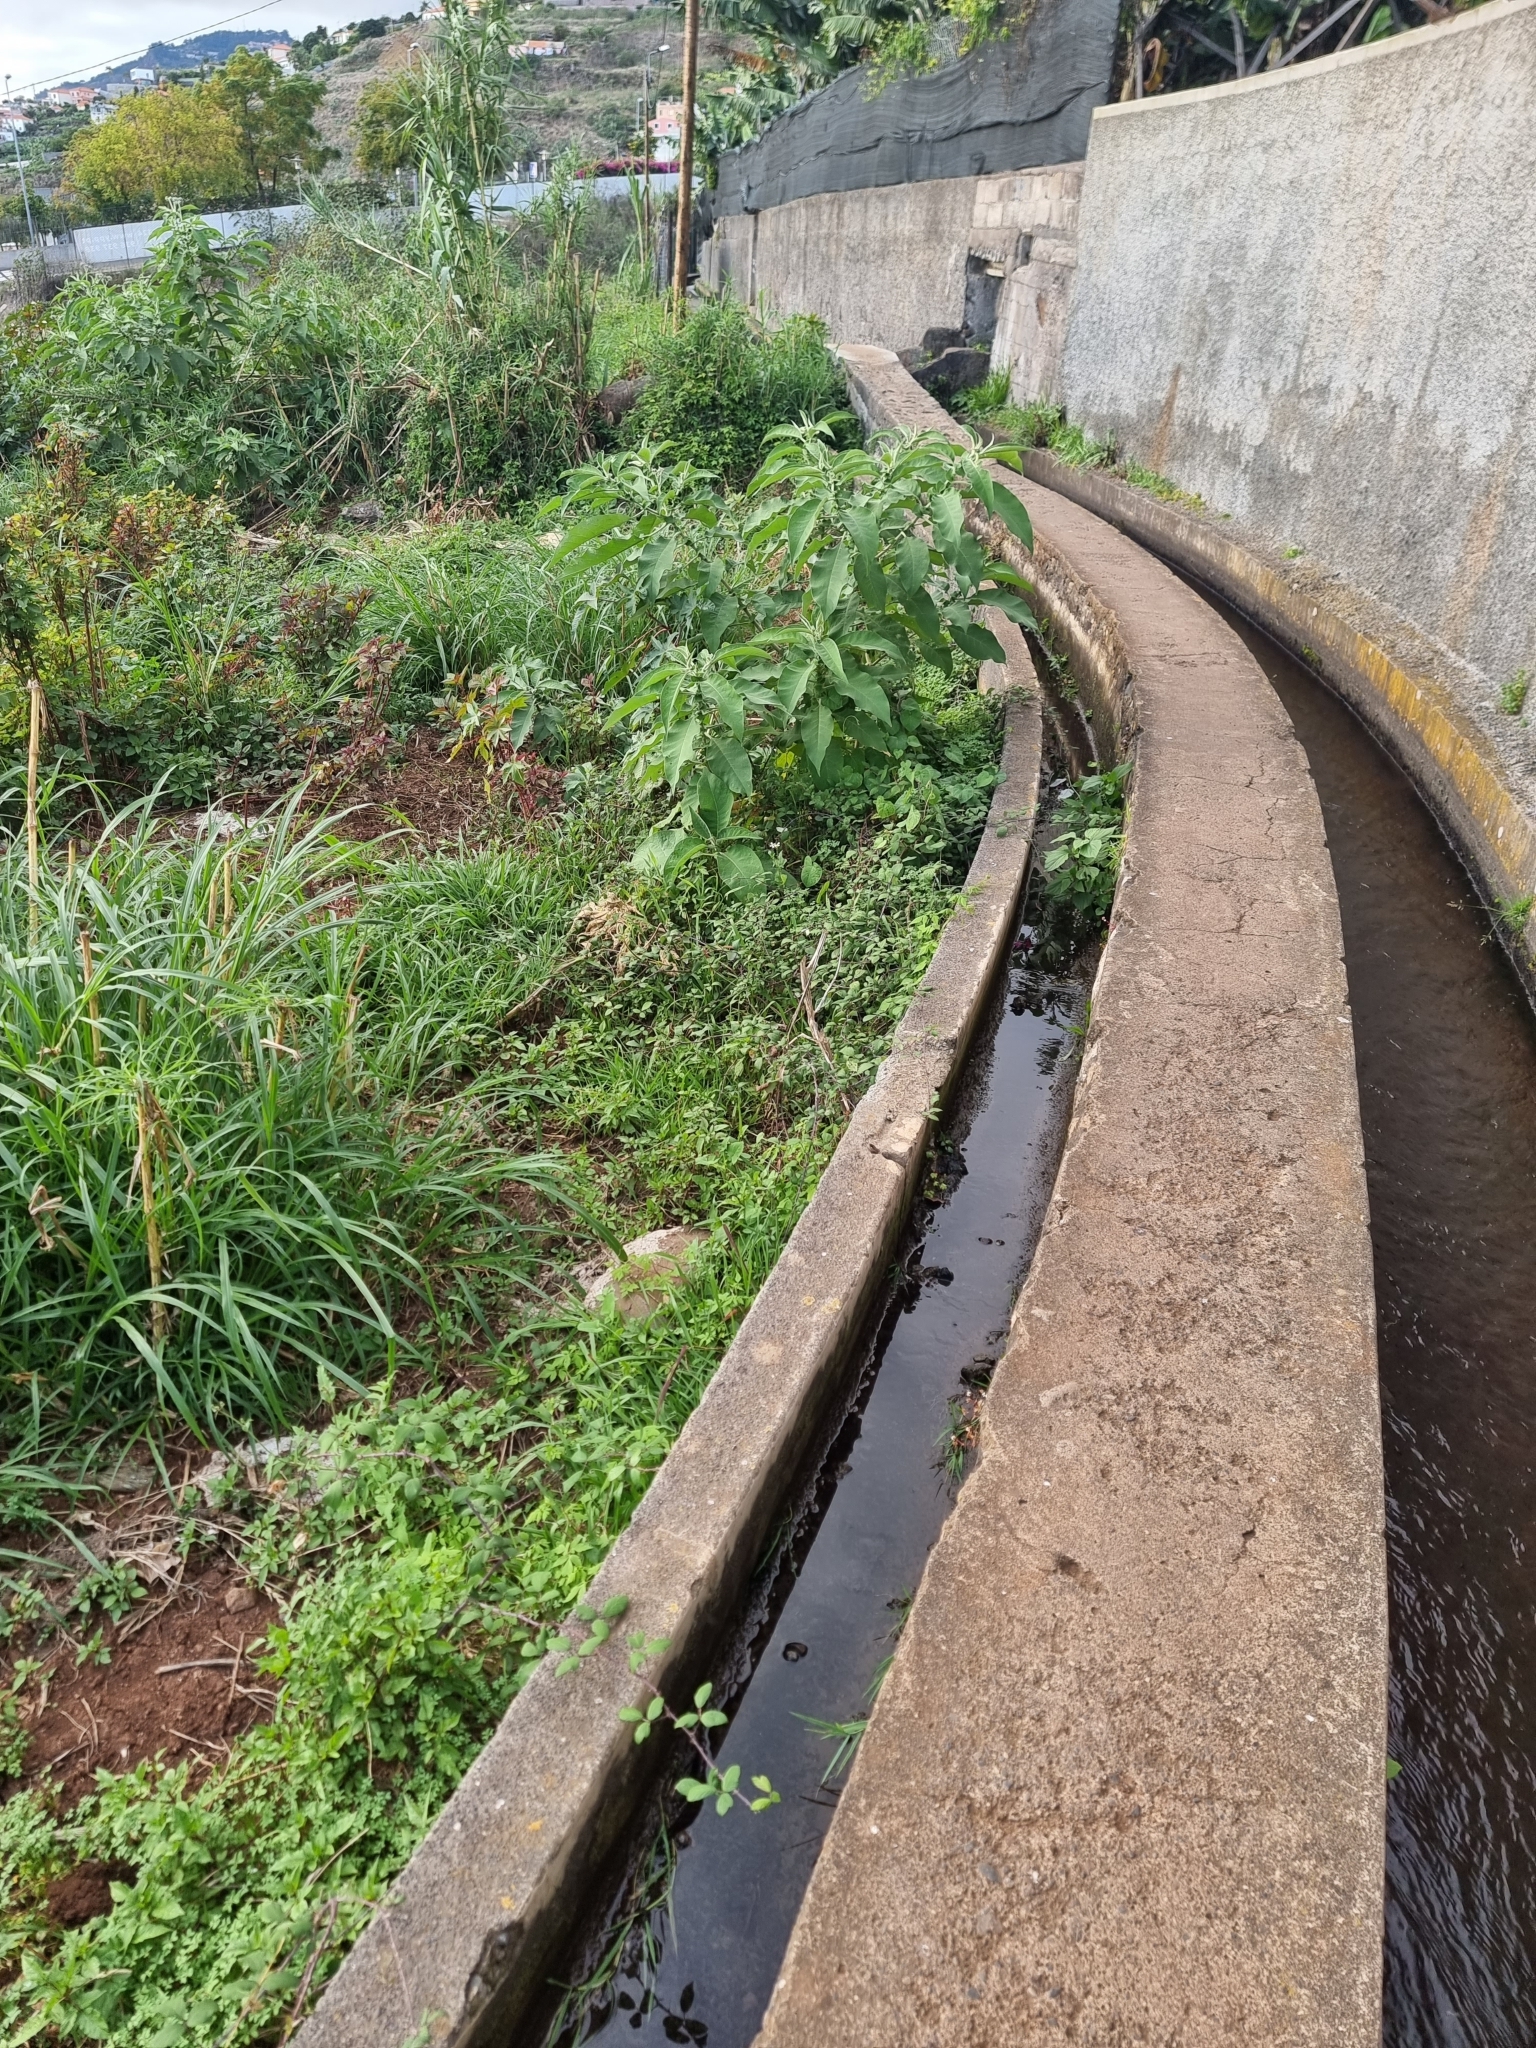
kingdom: Plantae
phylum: Tracheophyta
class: Magnoliopsida
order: Solanales
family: Solanaceae
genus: Solanum
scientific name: Solanum mauritianum
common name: Earleaf nightshade
